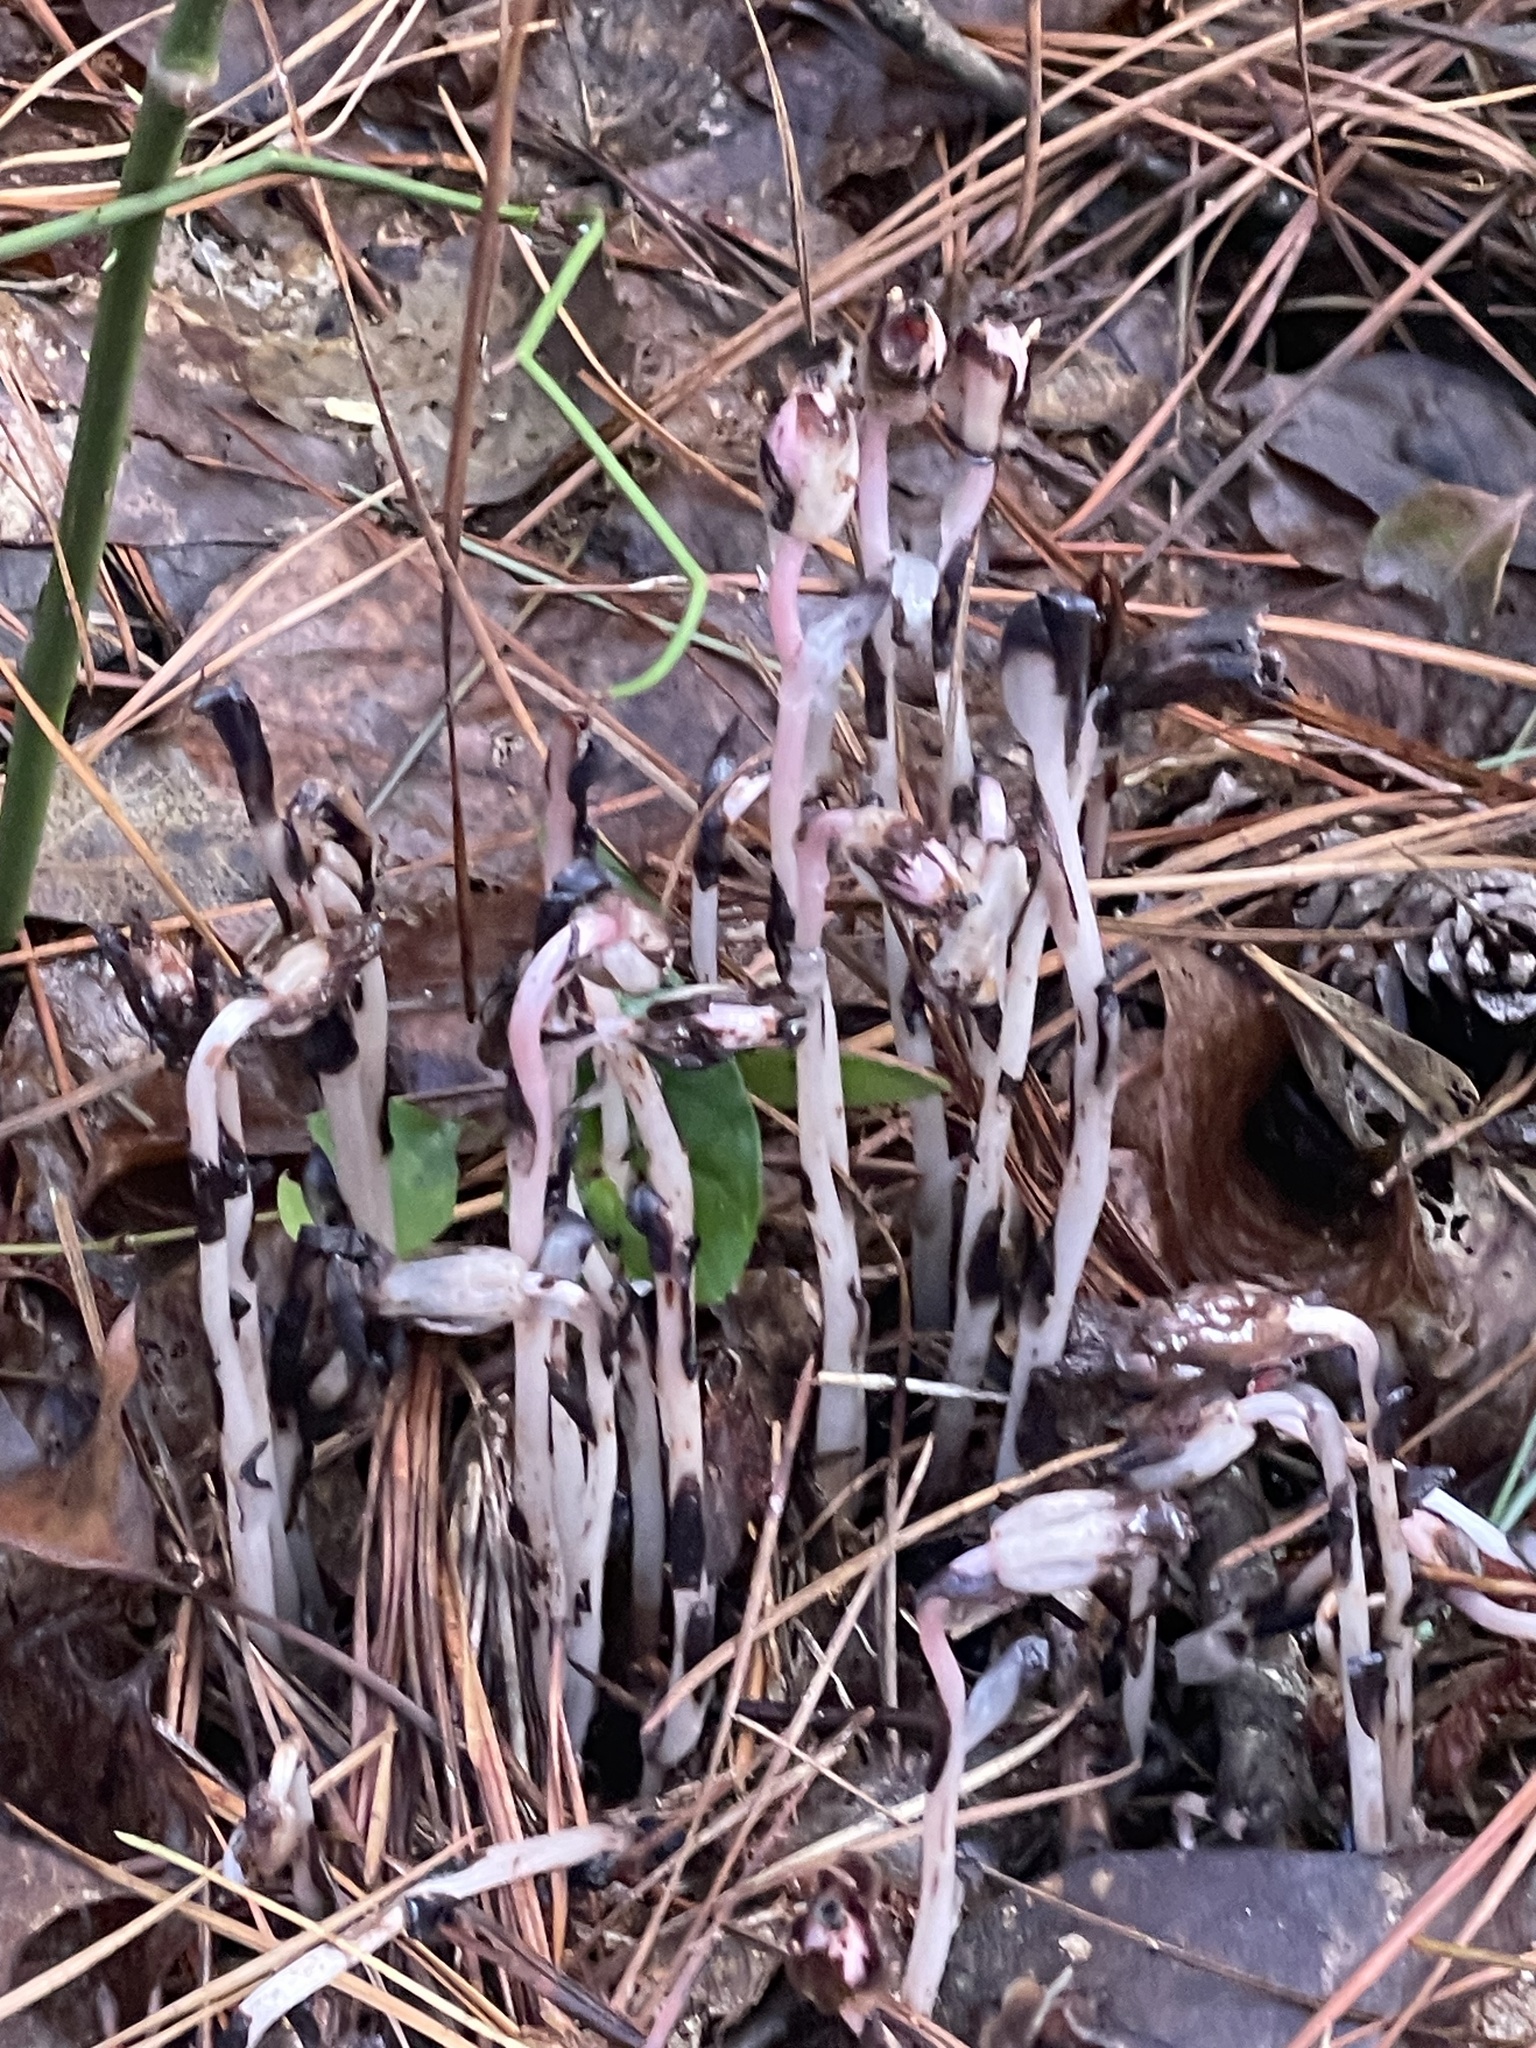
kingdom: Plantae
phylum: Tracheophyta
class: Magnoliopsida
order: Ericales
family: Ericaceae
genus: Monotropa
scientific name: Monotropa uniflora
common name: Convulsion root
